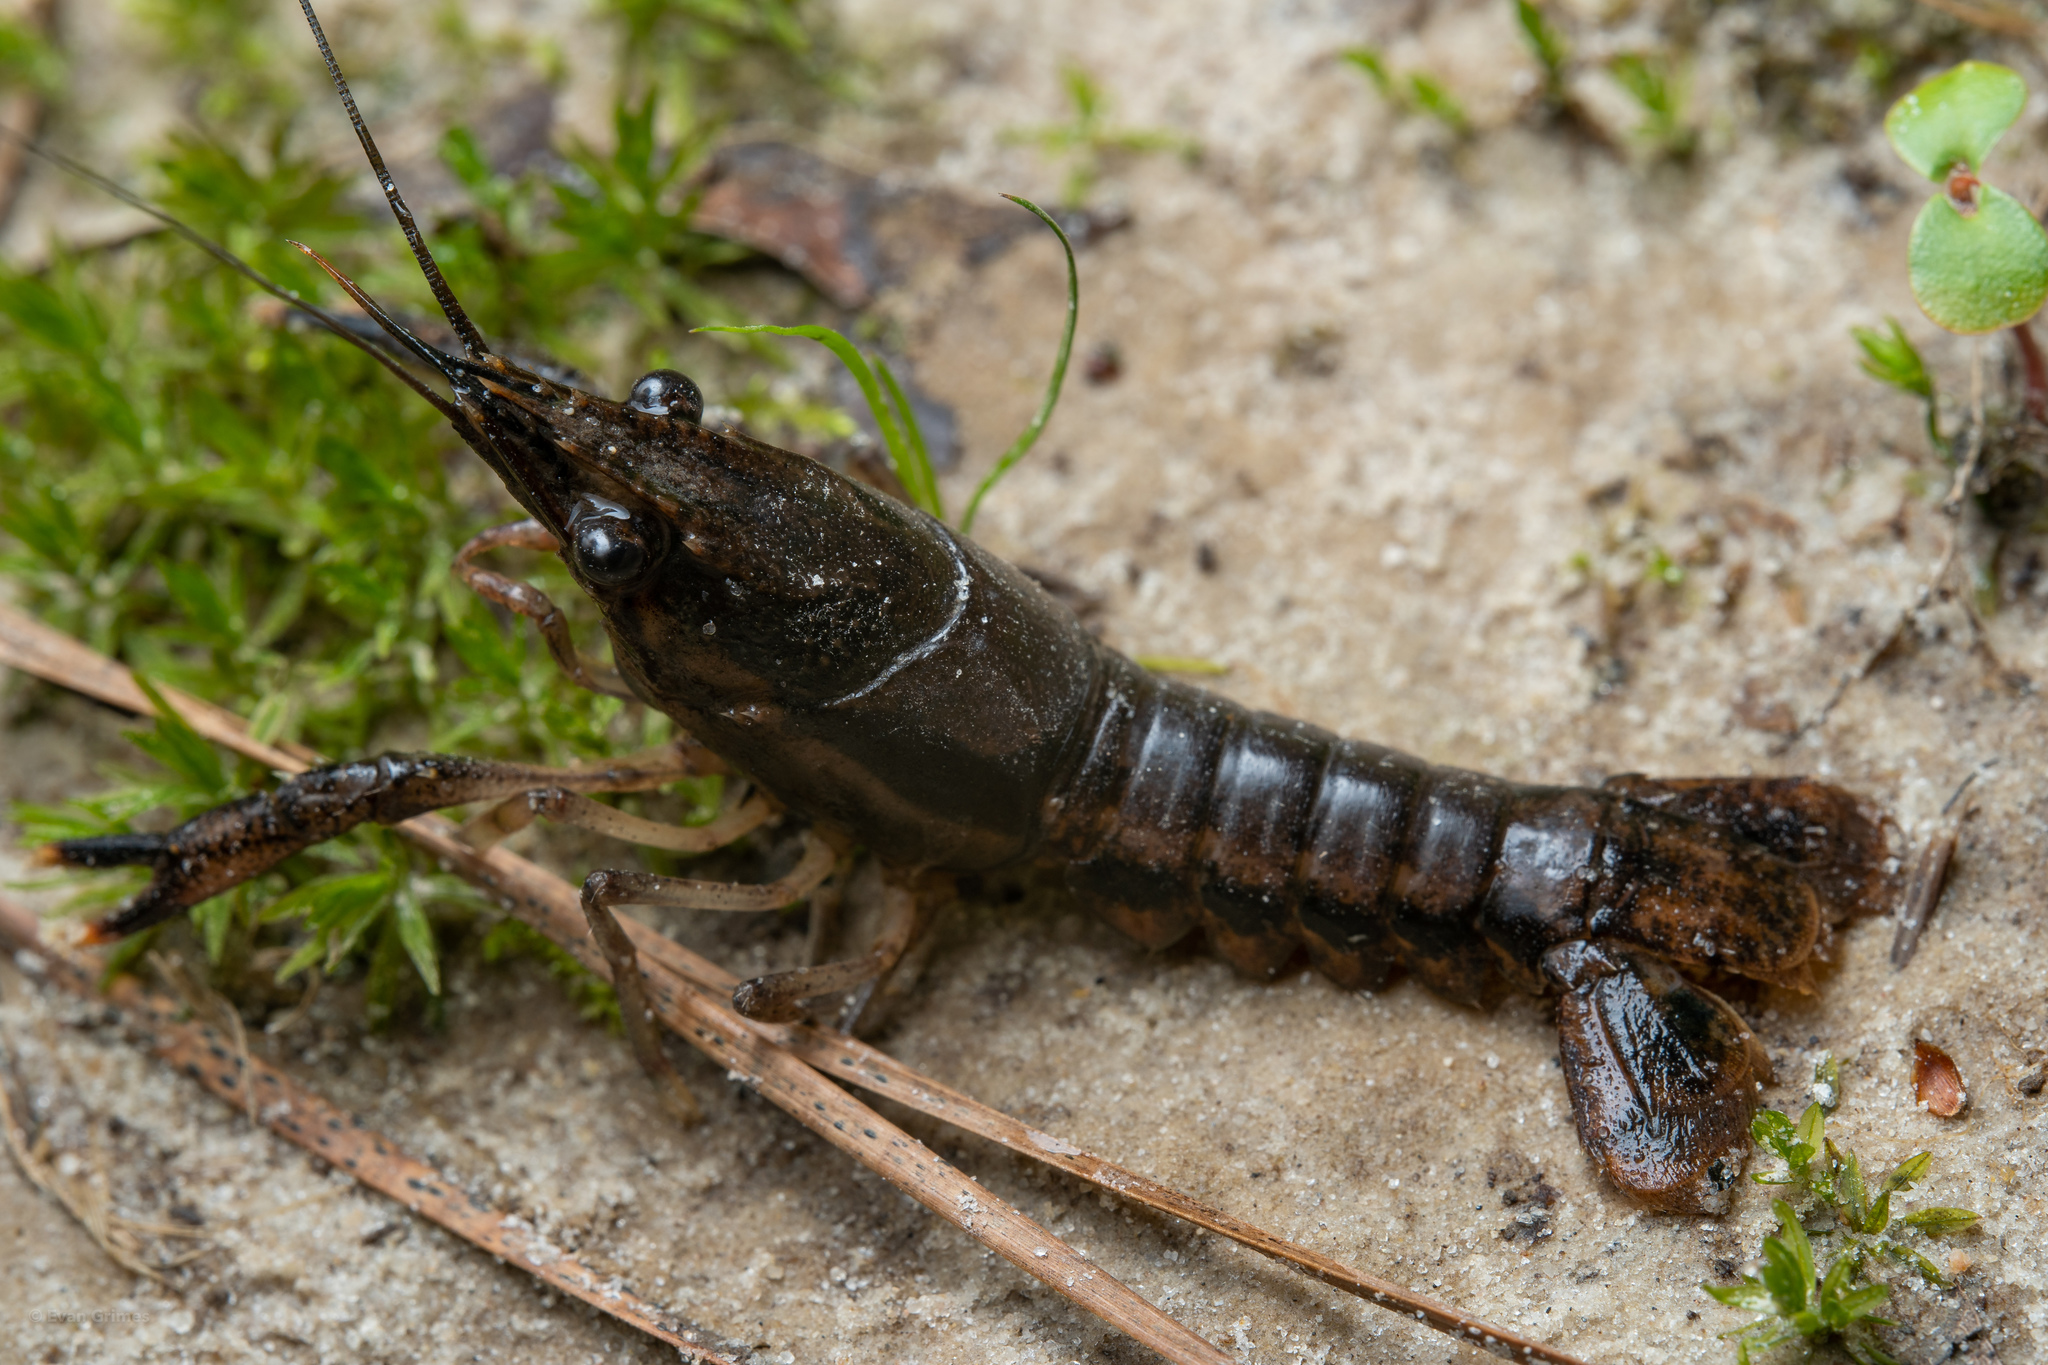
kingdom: Animalia
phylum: Arthropoda
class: Malacostraca
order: Decapoda
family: Cambaridae
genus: Procambarus
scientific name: Procambarus vioscai
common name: Percy's creek crayfish
